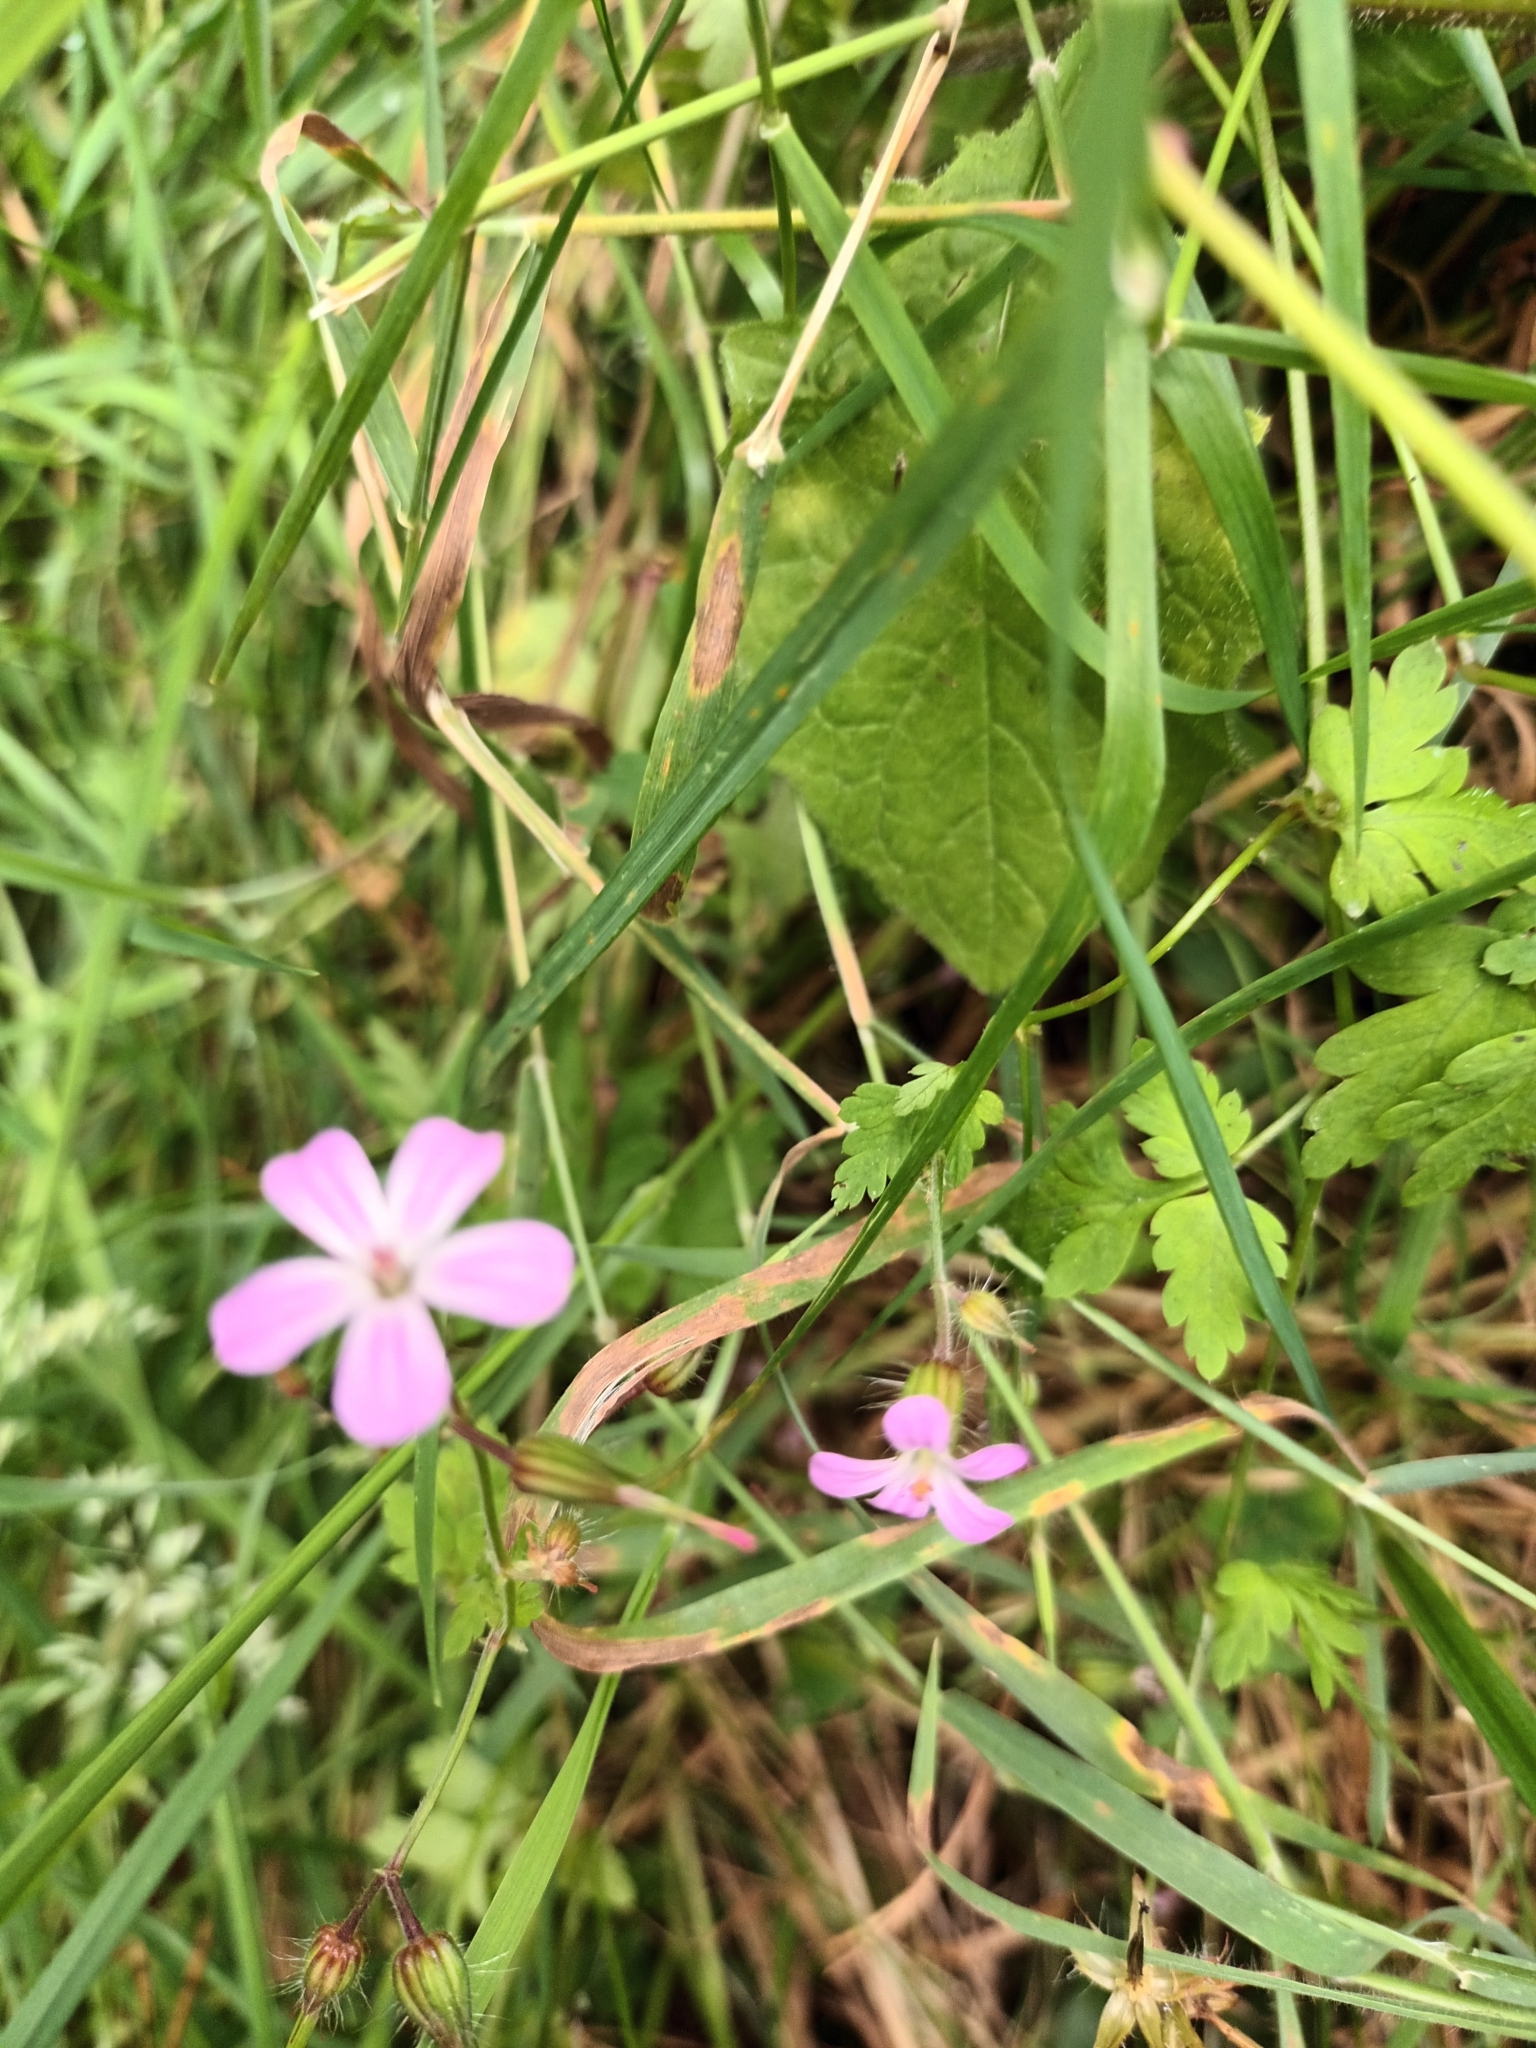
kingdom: Plantae
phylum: Tracheophyta
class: Magnoliopsida
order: Geraniales
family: Geraniaceae
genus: Geranium
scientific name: Geranium robertianum
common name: Herb-robert
